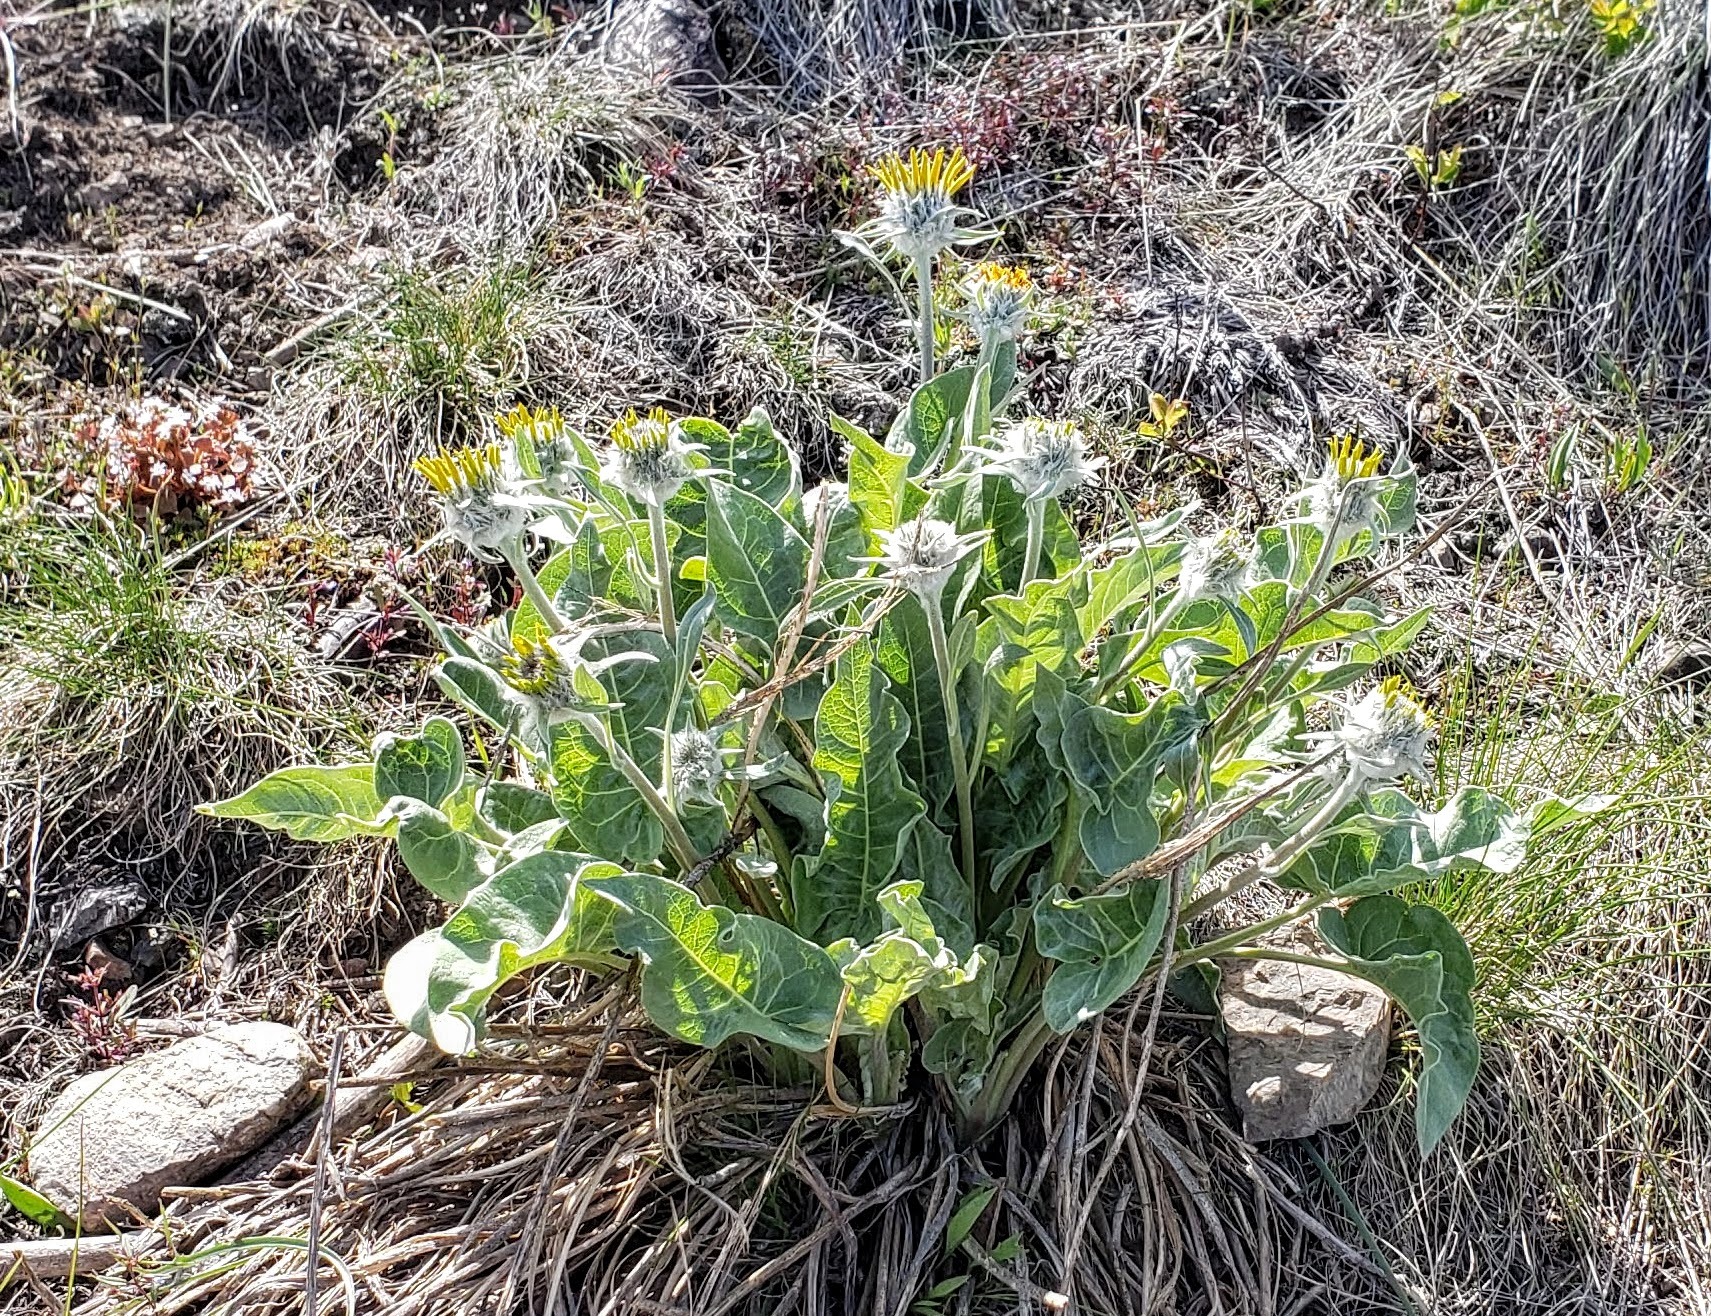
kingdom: Plantae
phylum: Tracheophyta
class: Magnoliopsida
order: Asterales
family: Asteraceae
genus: Wyethia
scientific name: Wyethia sagittata
